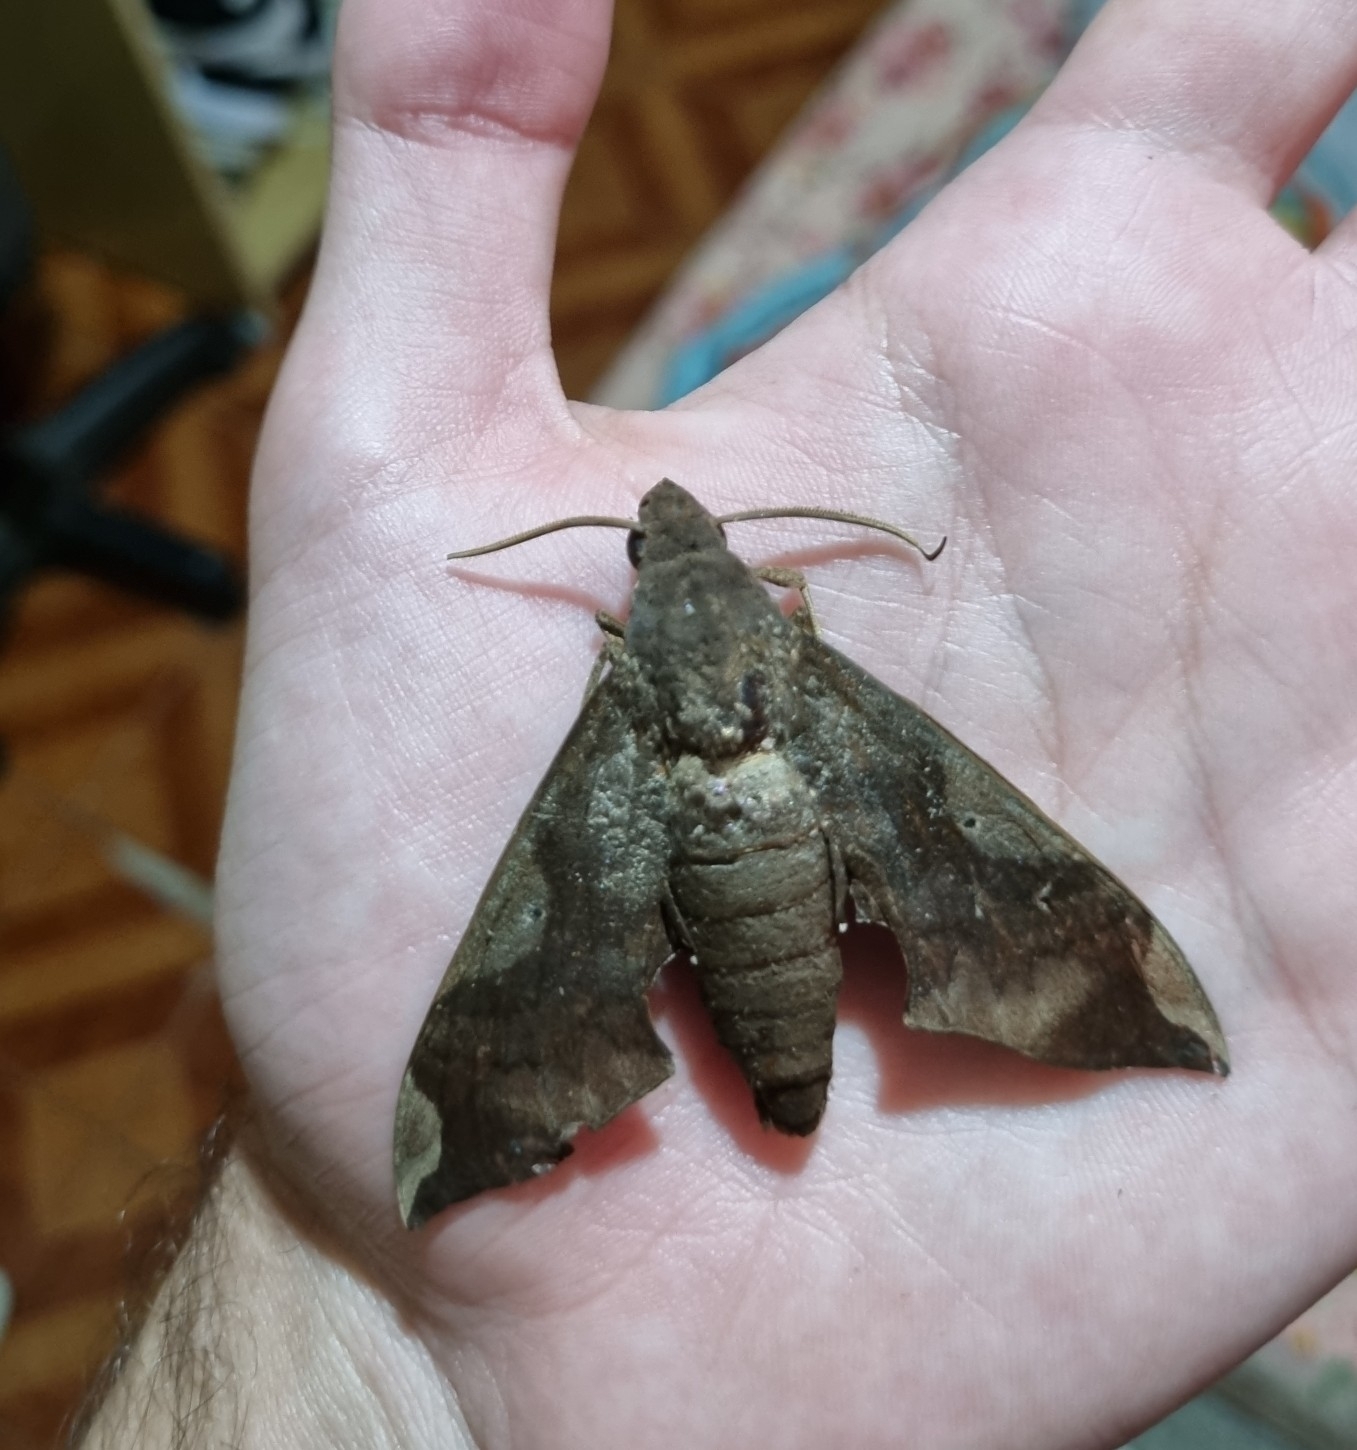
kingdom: Animalia
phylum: Arthropoda
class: Insecta
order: Lepidoptera
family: Sphingidae
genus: Pachylia
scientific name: Pachylia syces
